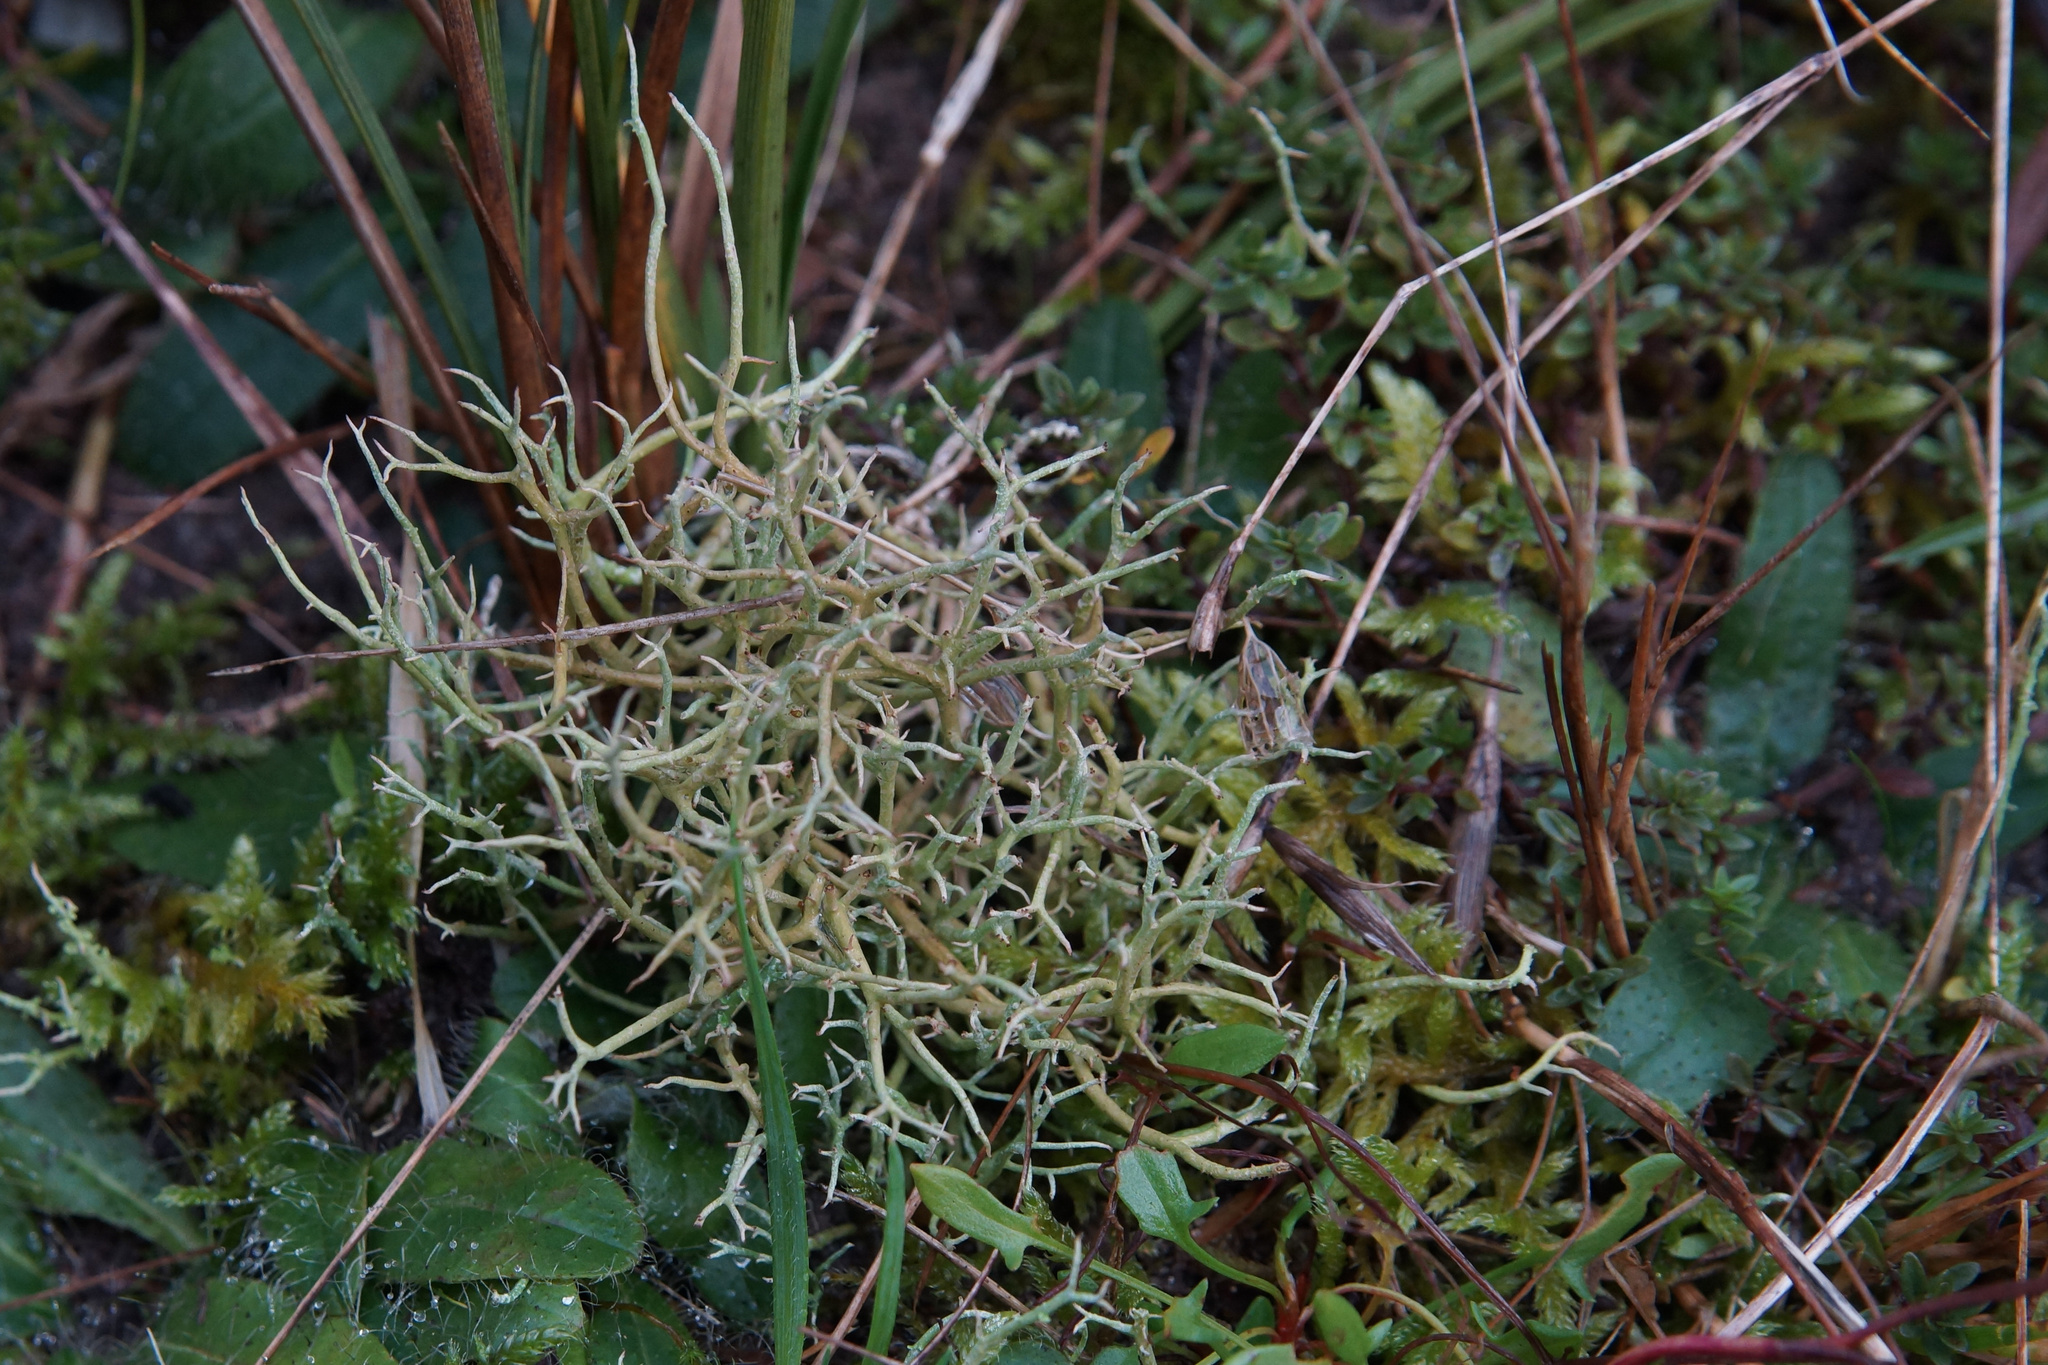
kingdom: Fungi
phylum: Ascomycota
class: Lecanoromycetes
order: Lecanorales
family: Cladoniaceae
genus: Cladonia
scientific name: Cladonia furcata
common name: Many-forked cladonia
